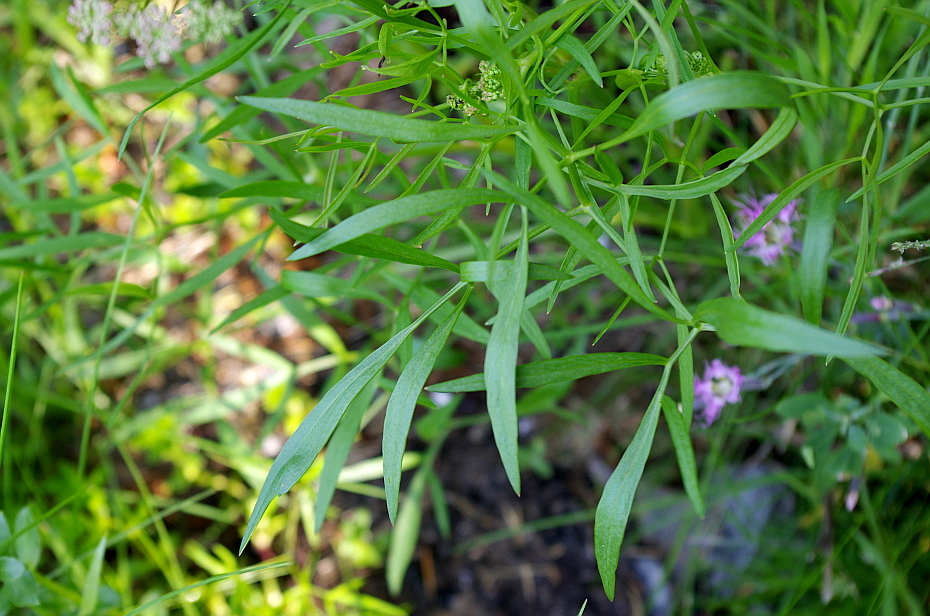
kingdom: Plantae
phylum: Tracheophyta
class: Magnoliopsida
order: Apiales
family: Apiaceae
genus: Cenolophium
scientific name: Cenolophium fischeri
